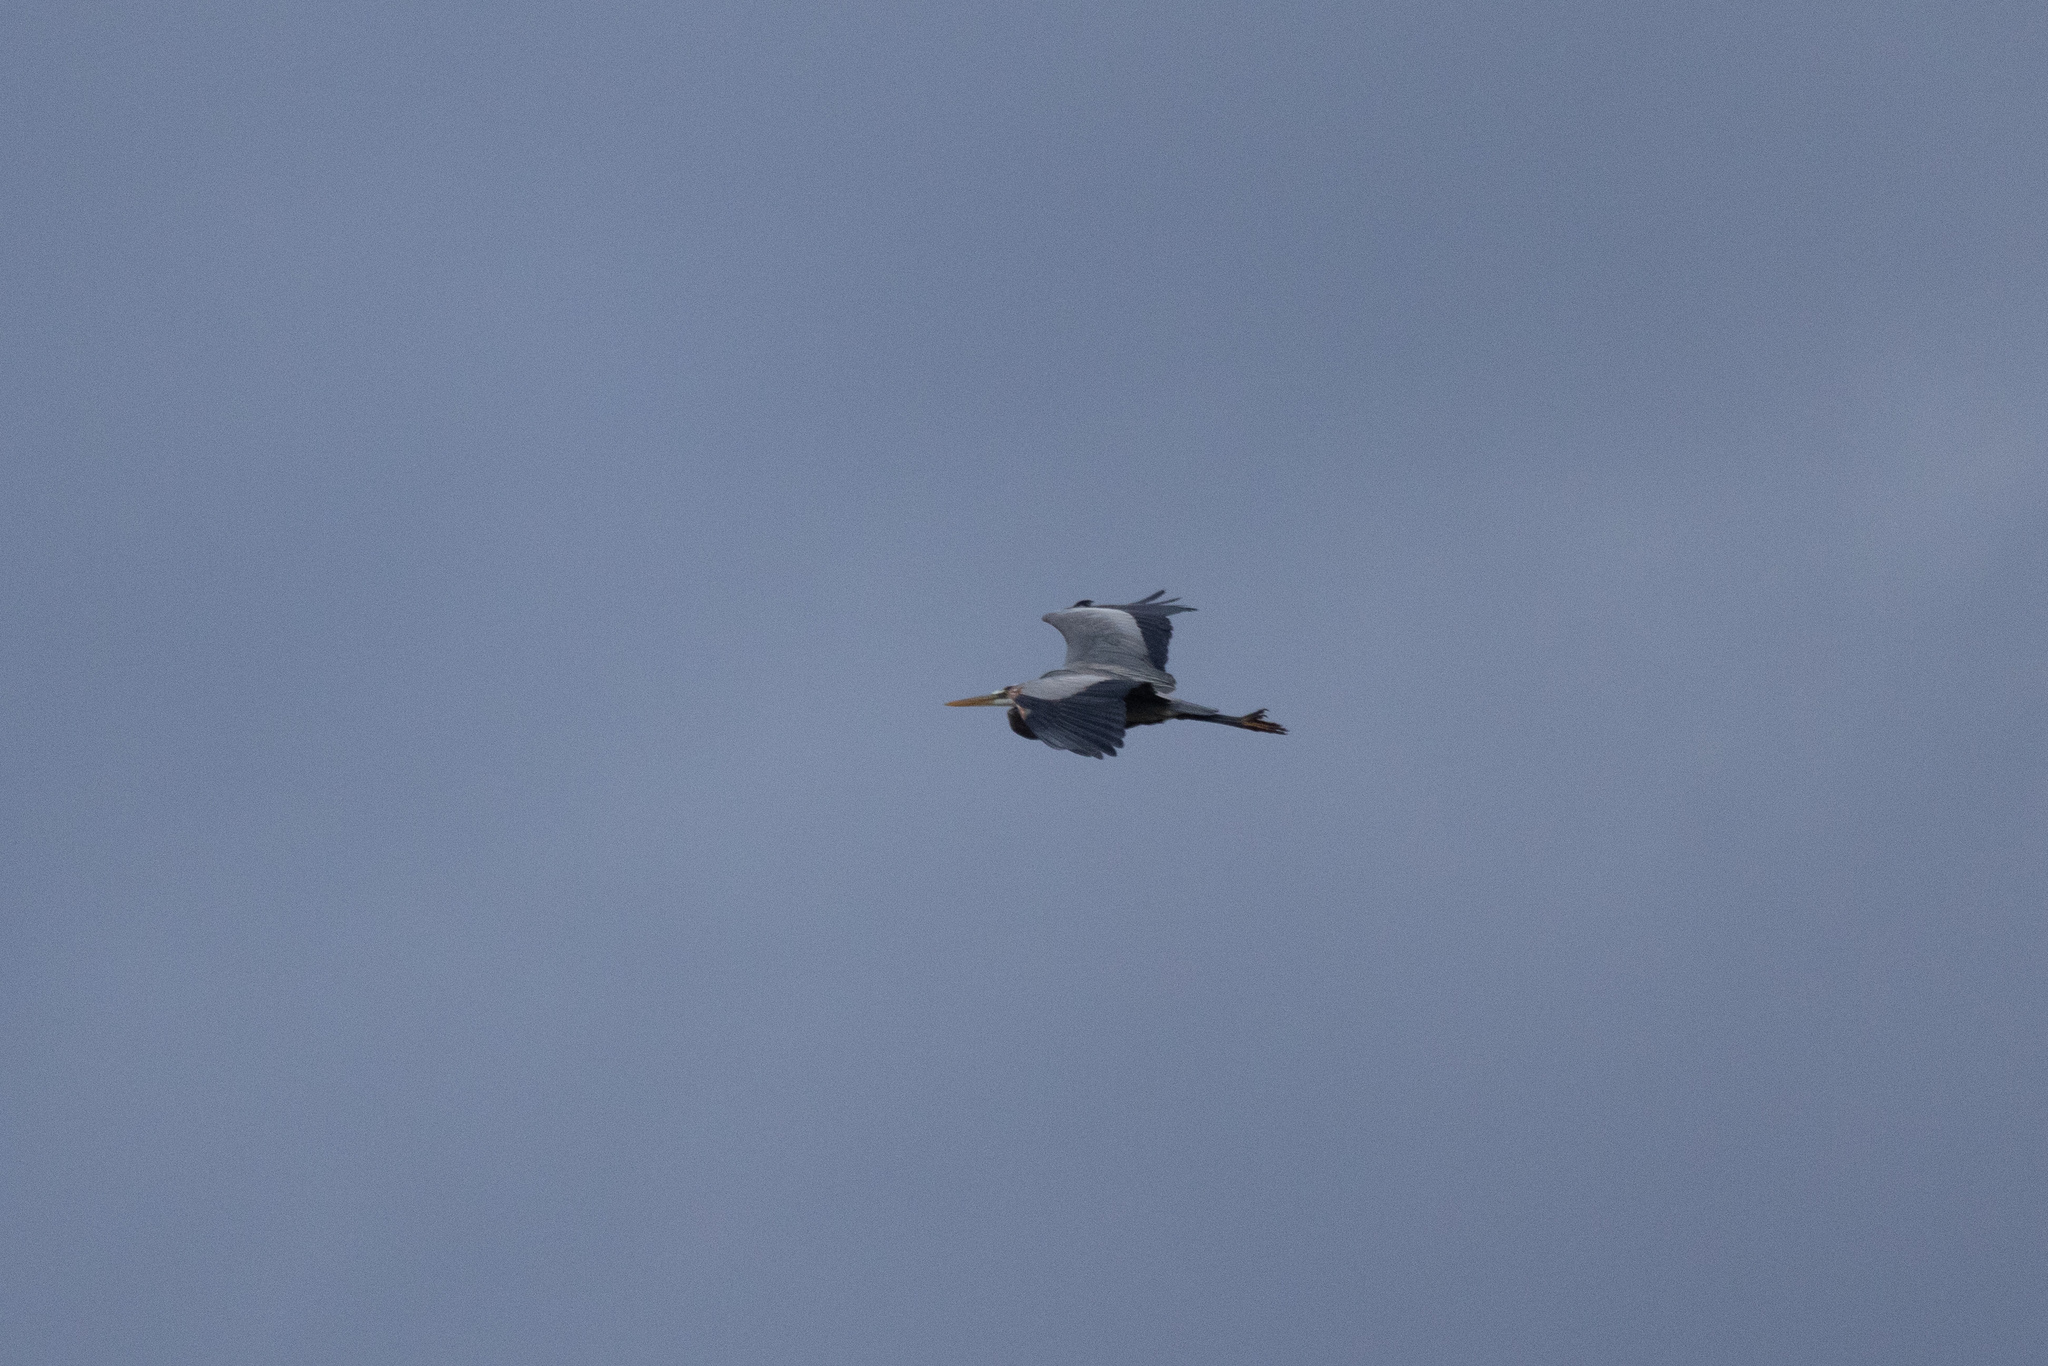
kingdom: Animalia
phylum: Chordata
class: Aves
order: Pelecaniformes
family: Ardeidae
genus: Ardea
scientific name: Ardea herodias
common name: Great blue heron
